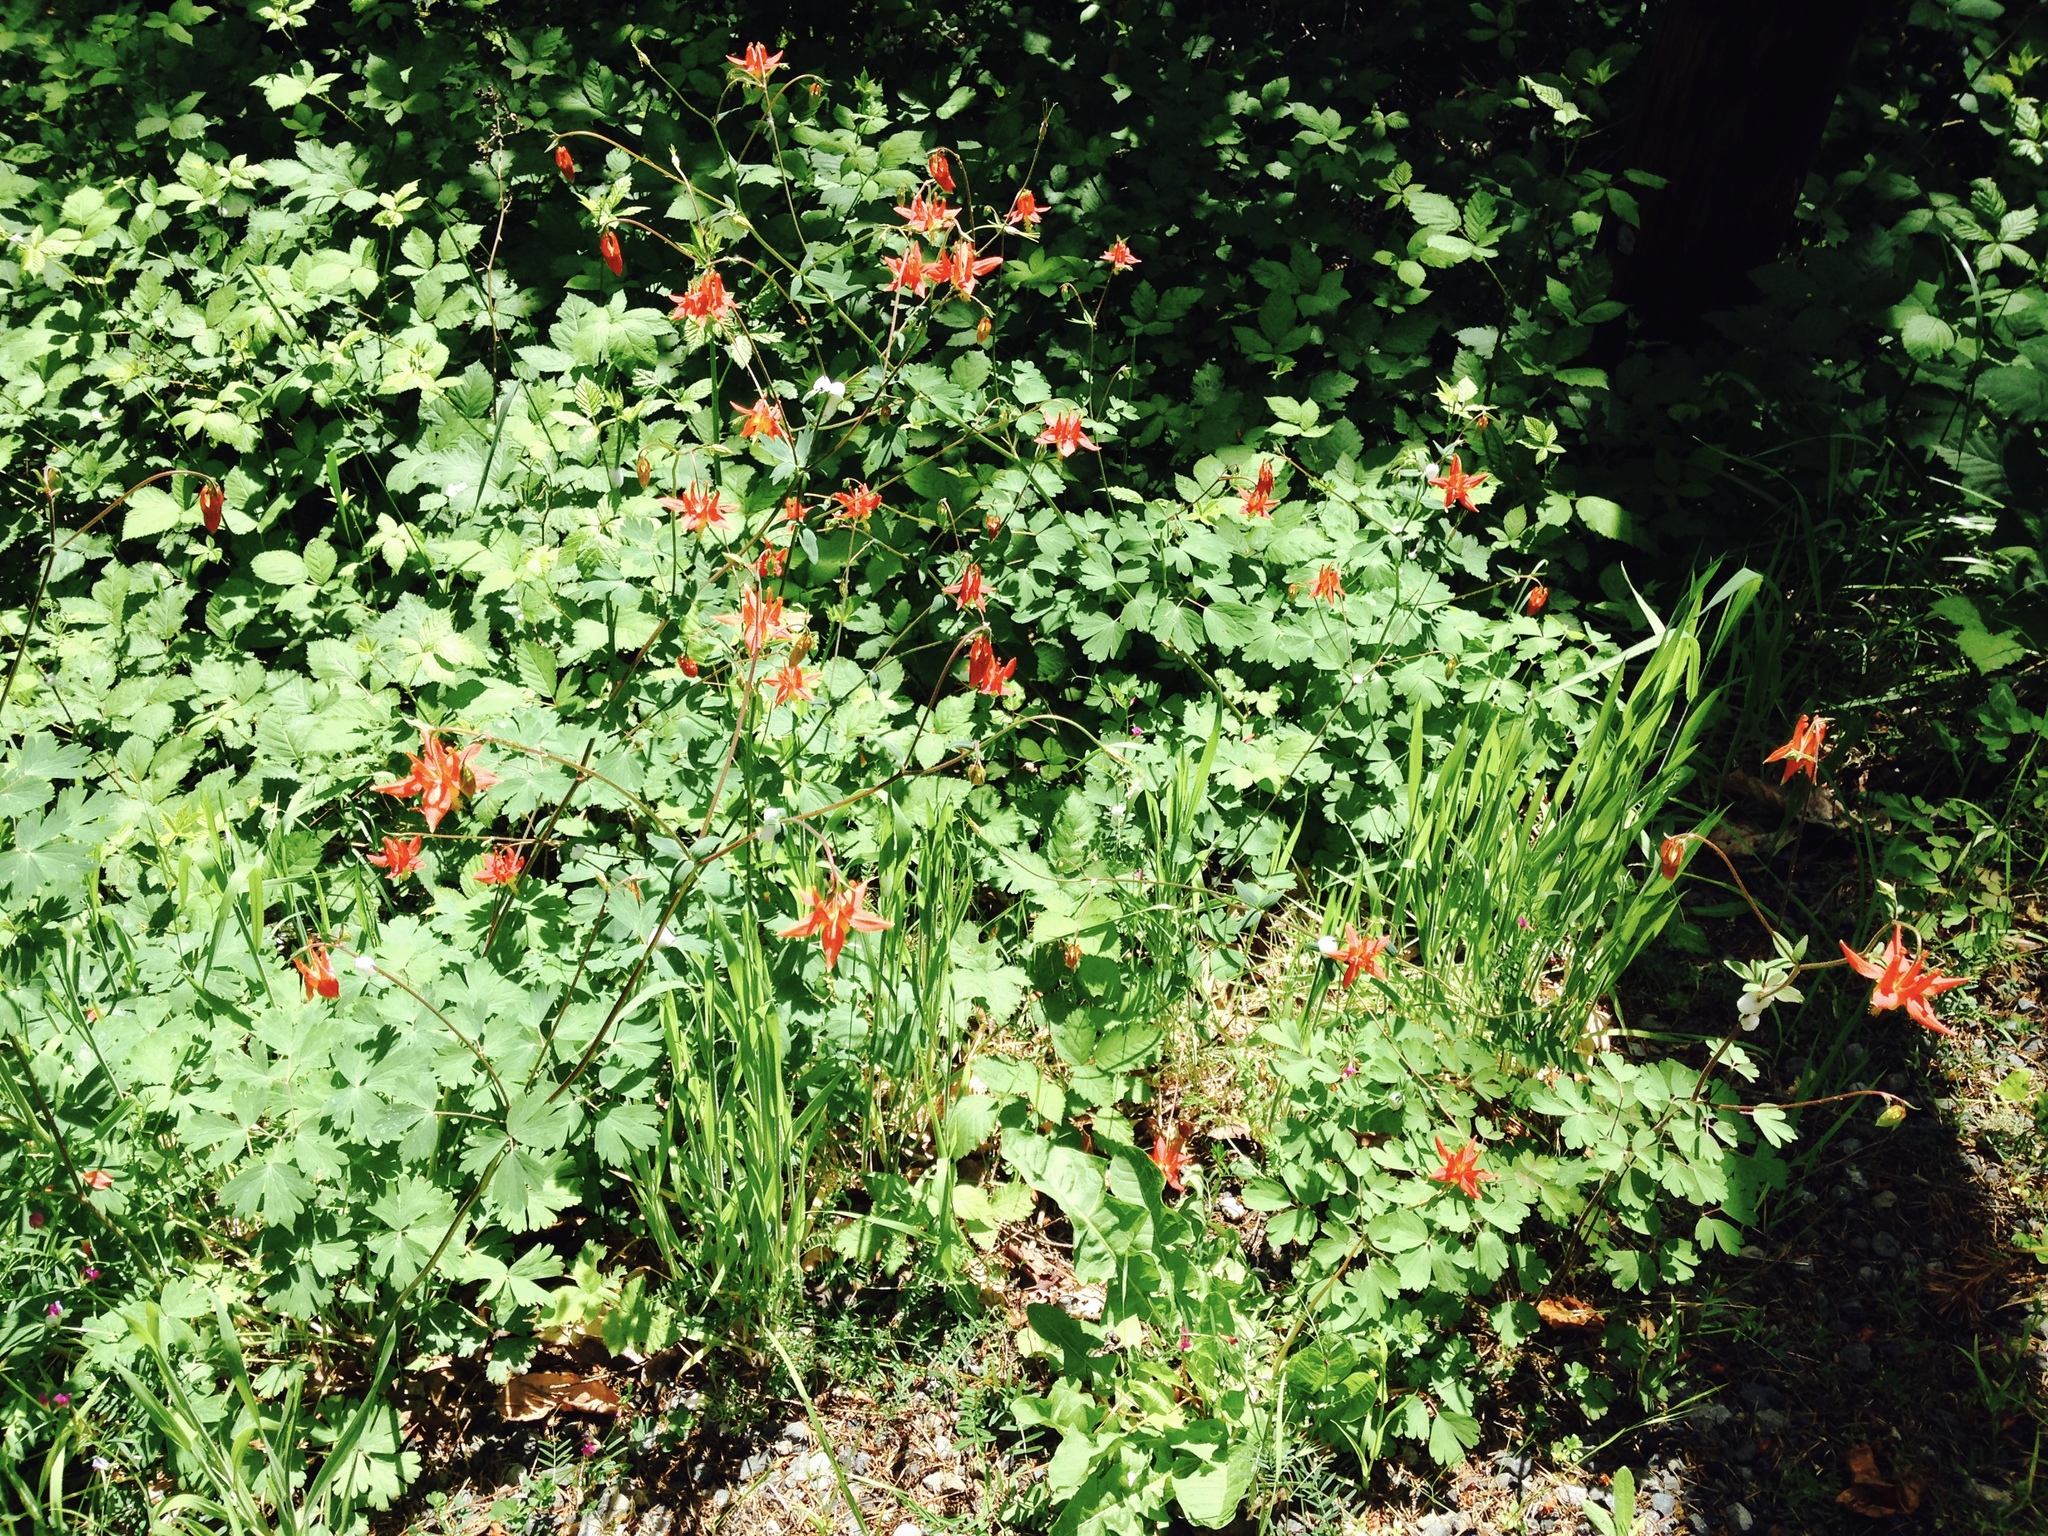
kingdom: Plantae
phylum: Tracheophyta
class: Magnoliopsida
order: Ranunculales
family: Ranunculaceae
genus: Aquilegia
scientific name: Aquilegia formosa
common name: Sitka columbine
